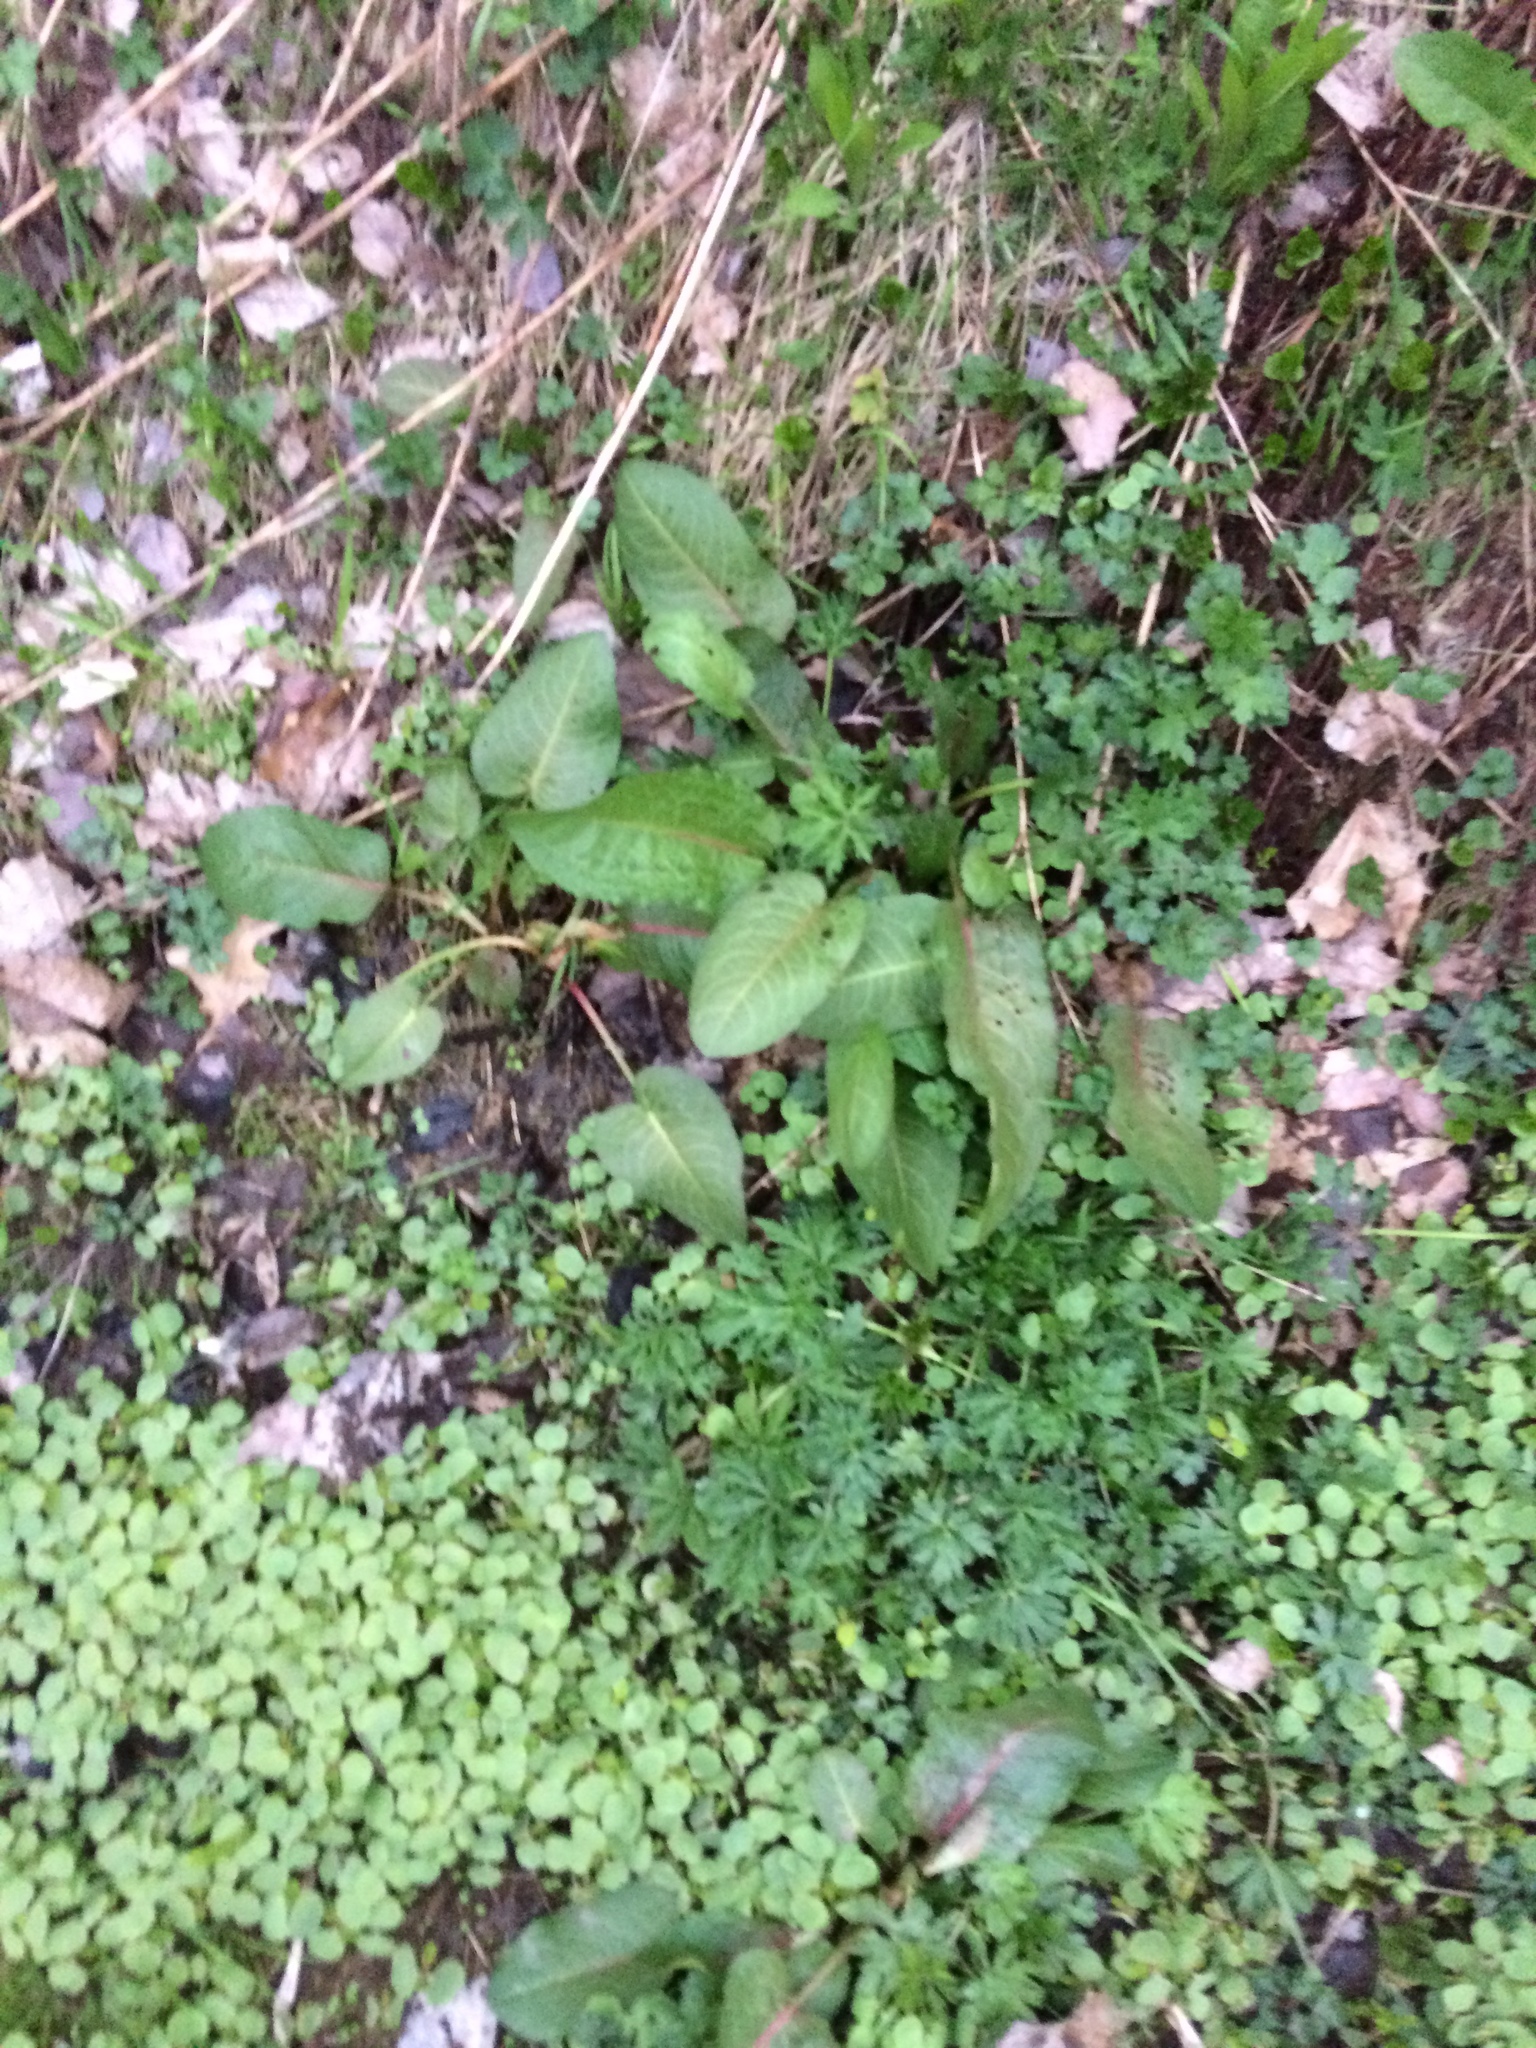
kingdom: Plantae
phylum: Tracheophyta
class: Magnoliopsida
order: Caryophyllales
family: Polygonaceae
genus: Rumex
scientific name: Rumex obtusifolius
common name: Bitter dock
